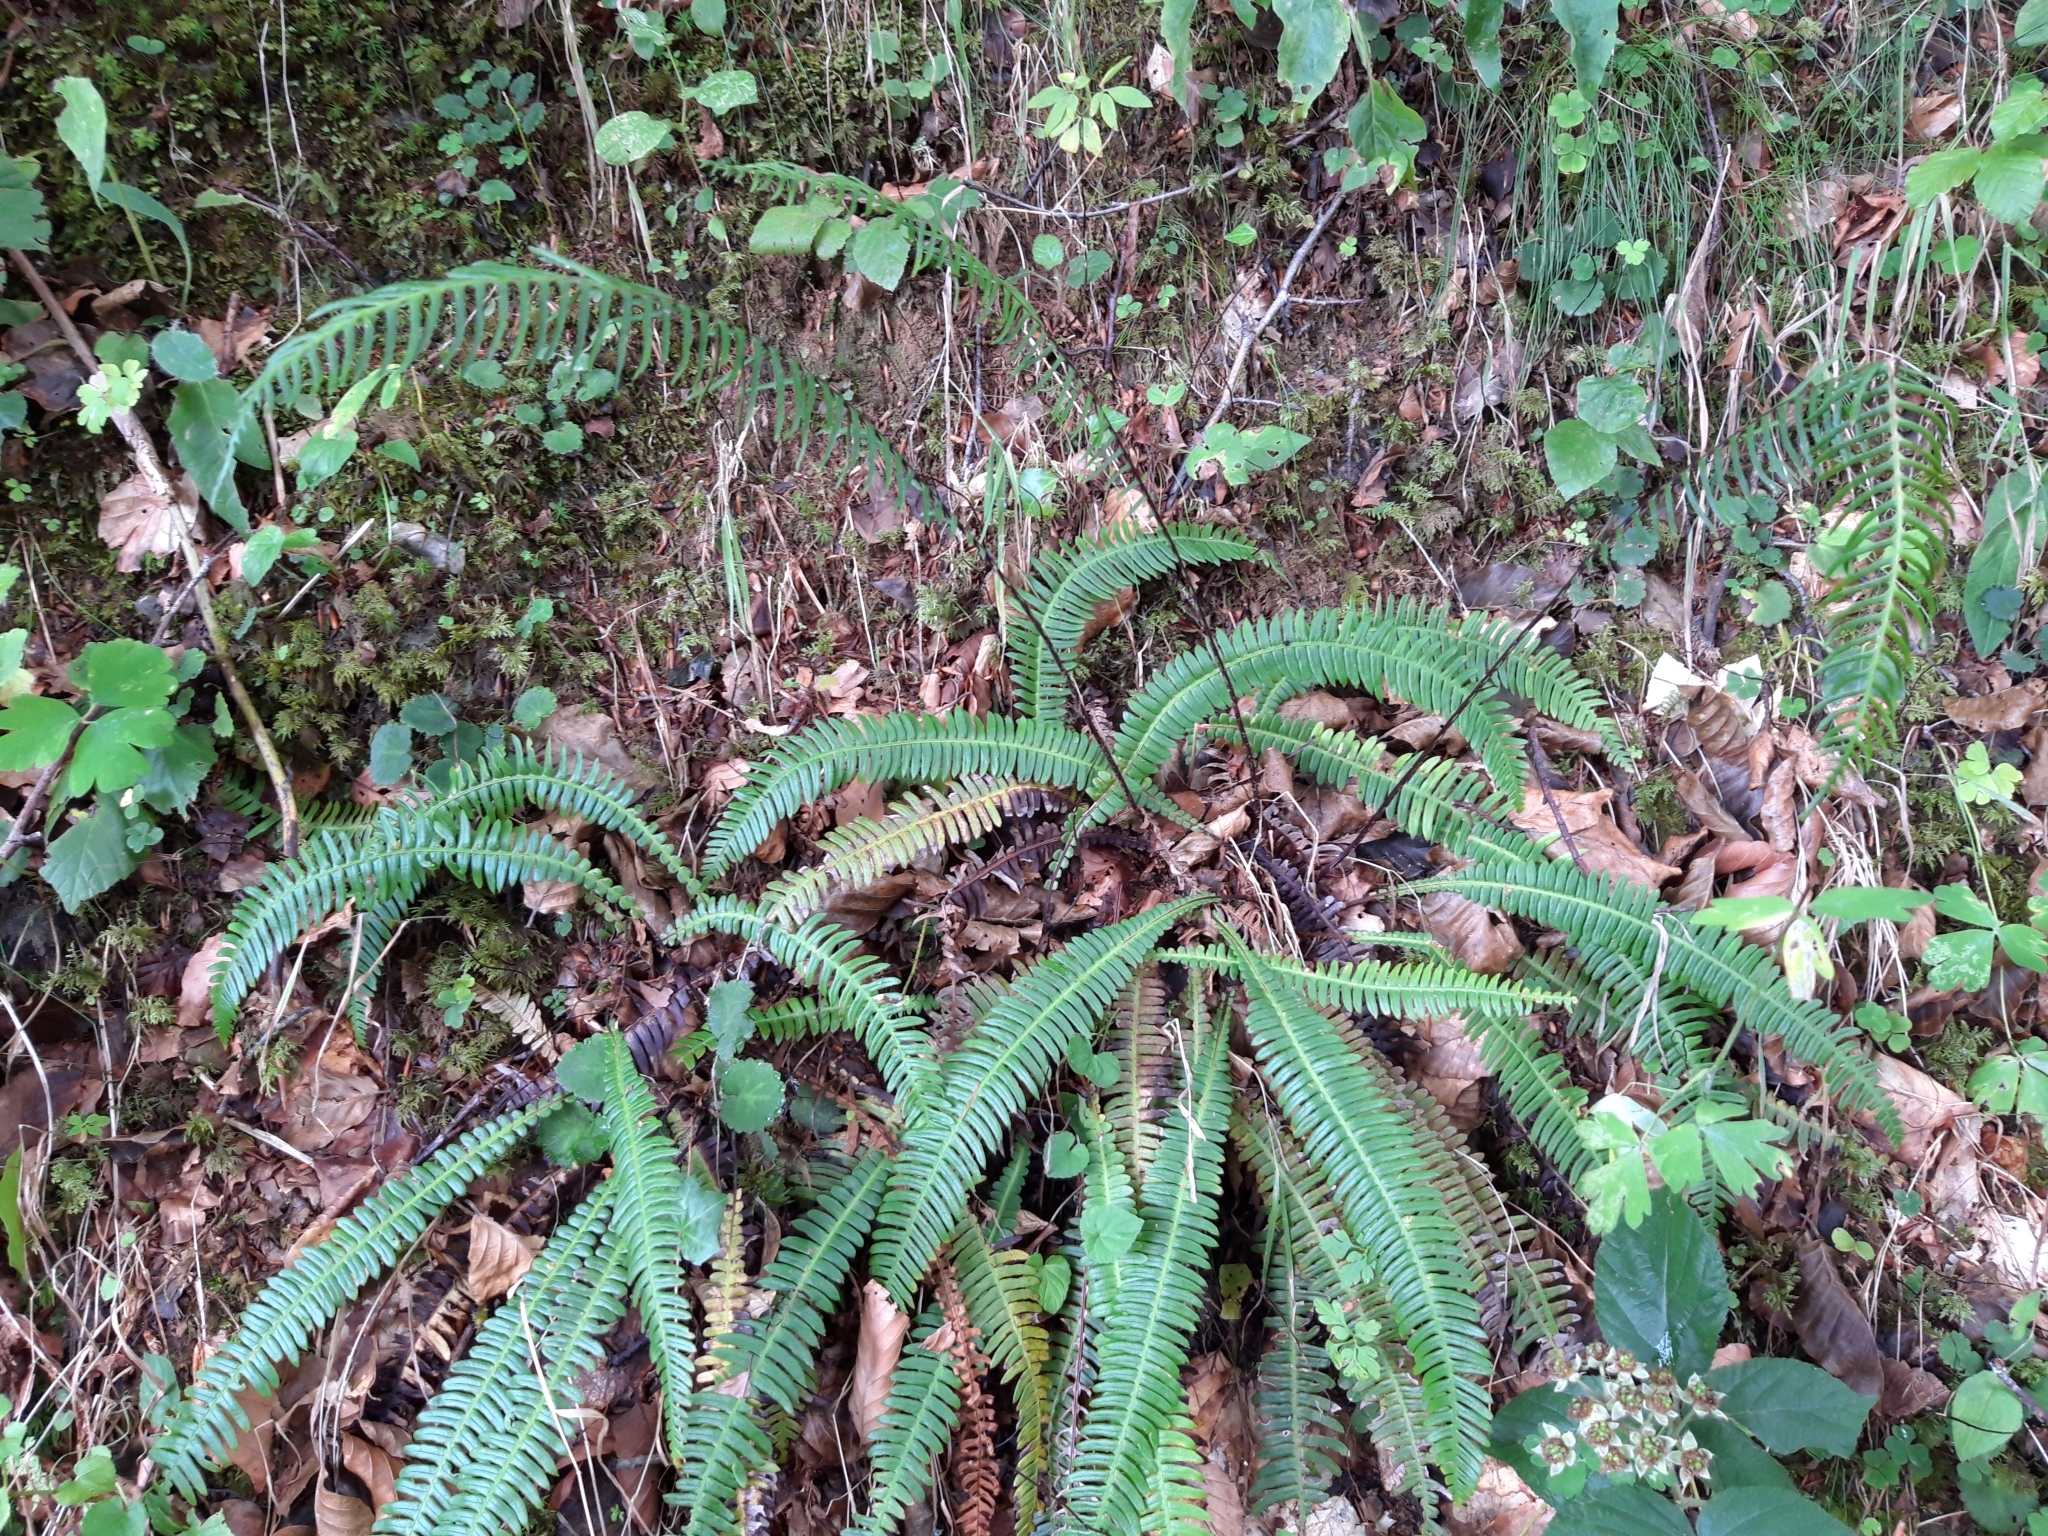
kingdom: Plantae
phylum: Tracheophyta
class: Polypodiopsida
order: Polypodiales
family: Blechnaceae
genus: Struthiopteris
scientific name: Struthiopteris spicant
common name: Deer fern
